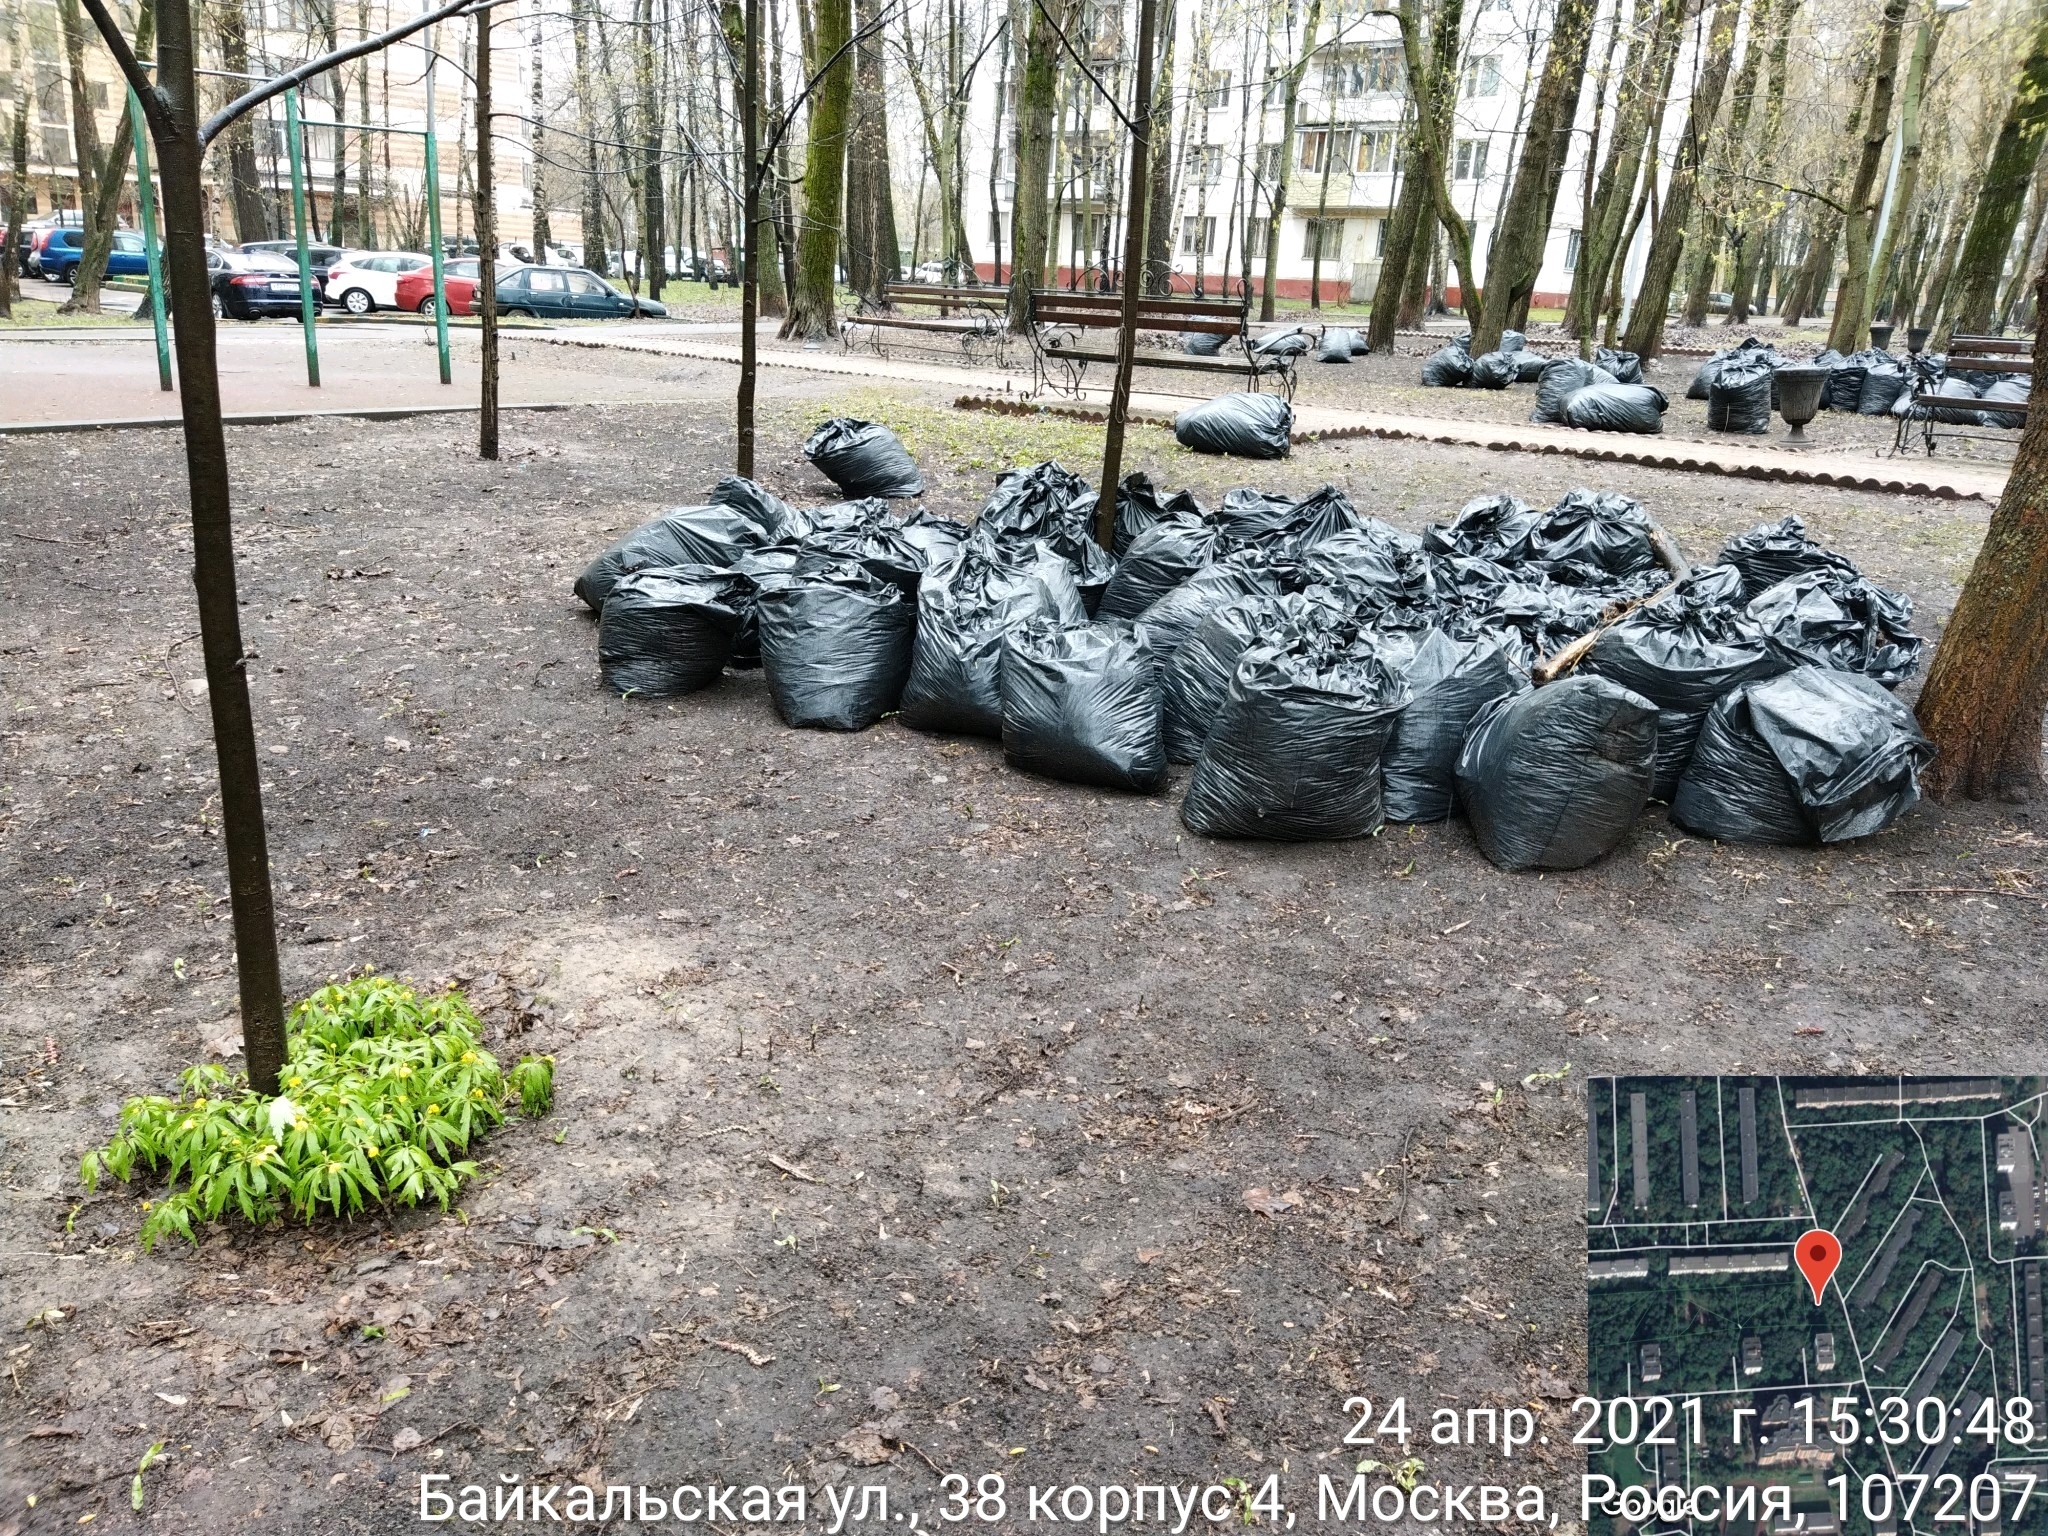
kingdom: Plantae
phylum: Tracheophyta
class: Magnoliopsida
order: Ranunculales
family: Ranunculaceae
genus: Anemone
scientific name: Anemone ranunculoides
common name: Yellow anemone
